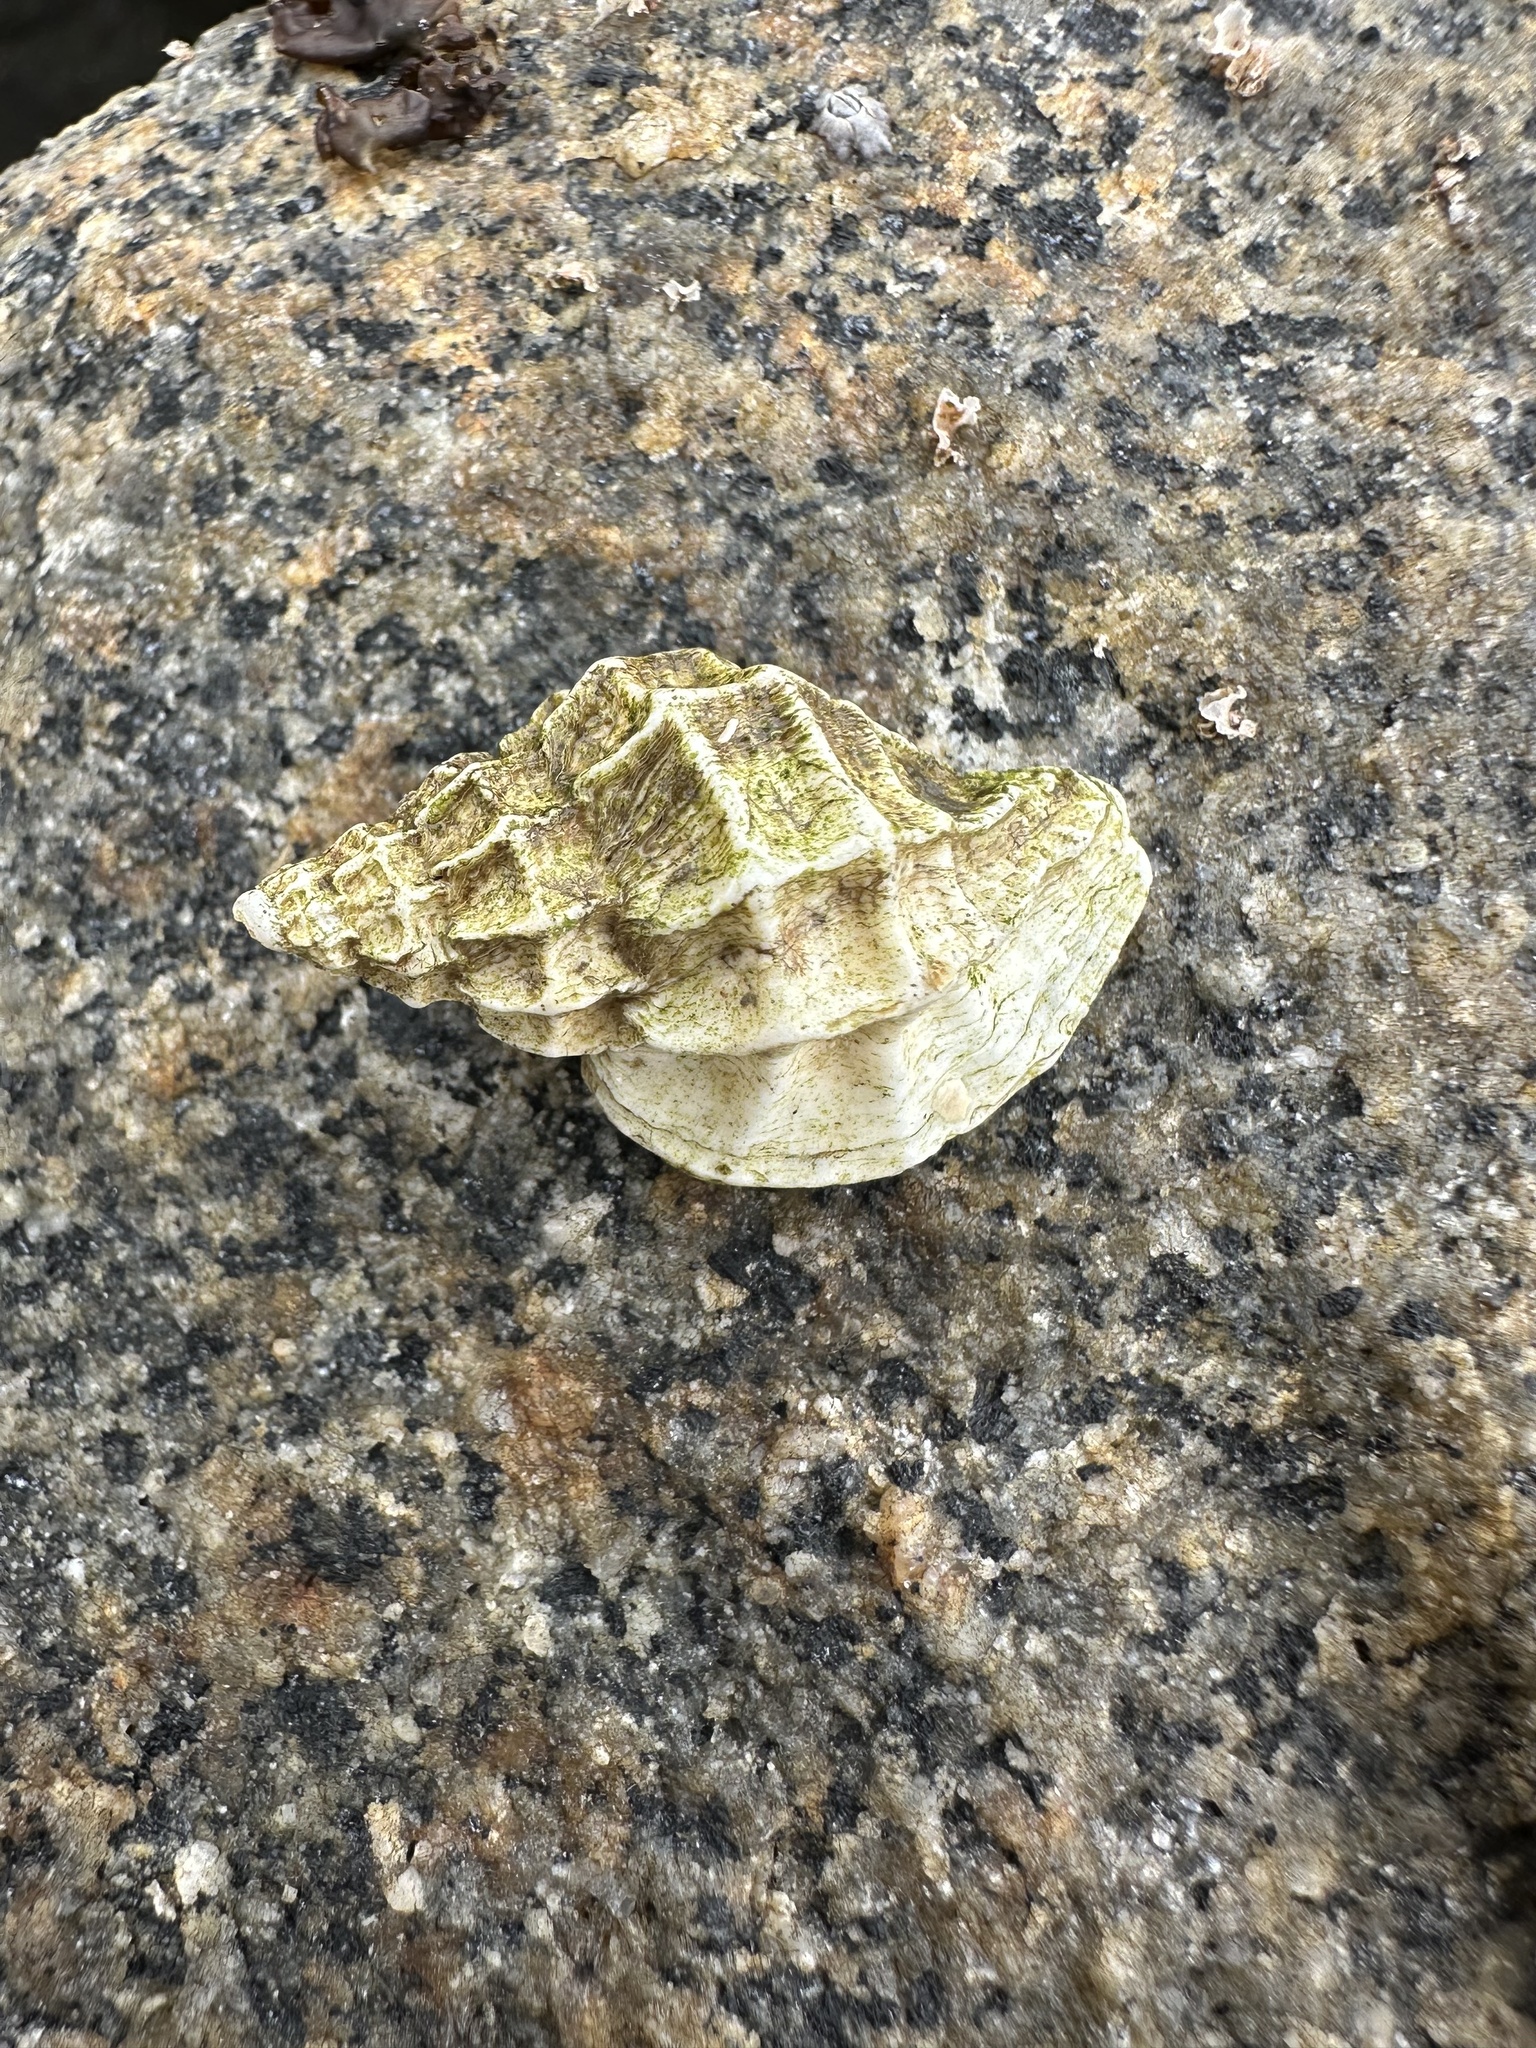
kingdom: Animalia
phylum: Mollusca
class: Gastropoda
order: Neogastropoda
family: Muricidae
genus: Crassilabrum
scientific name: Crassilabrum crassilabrum
